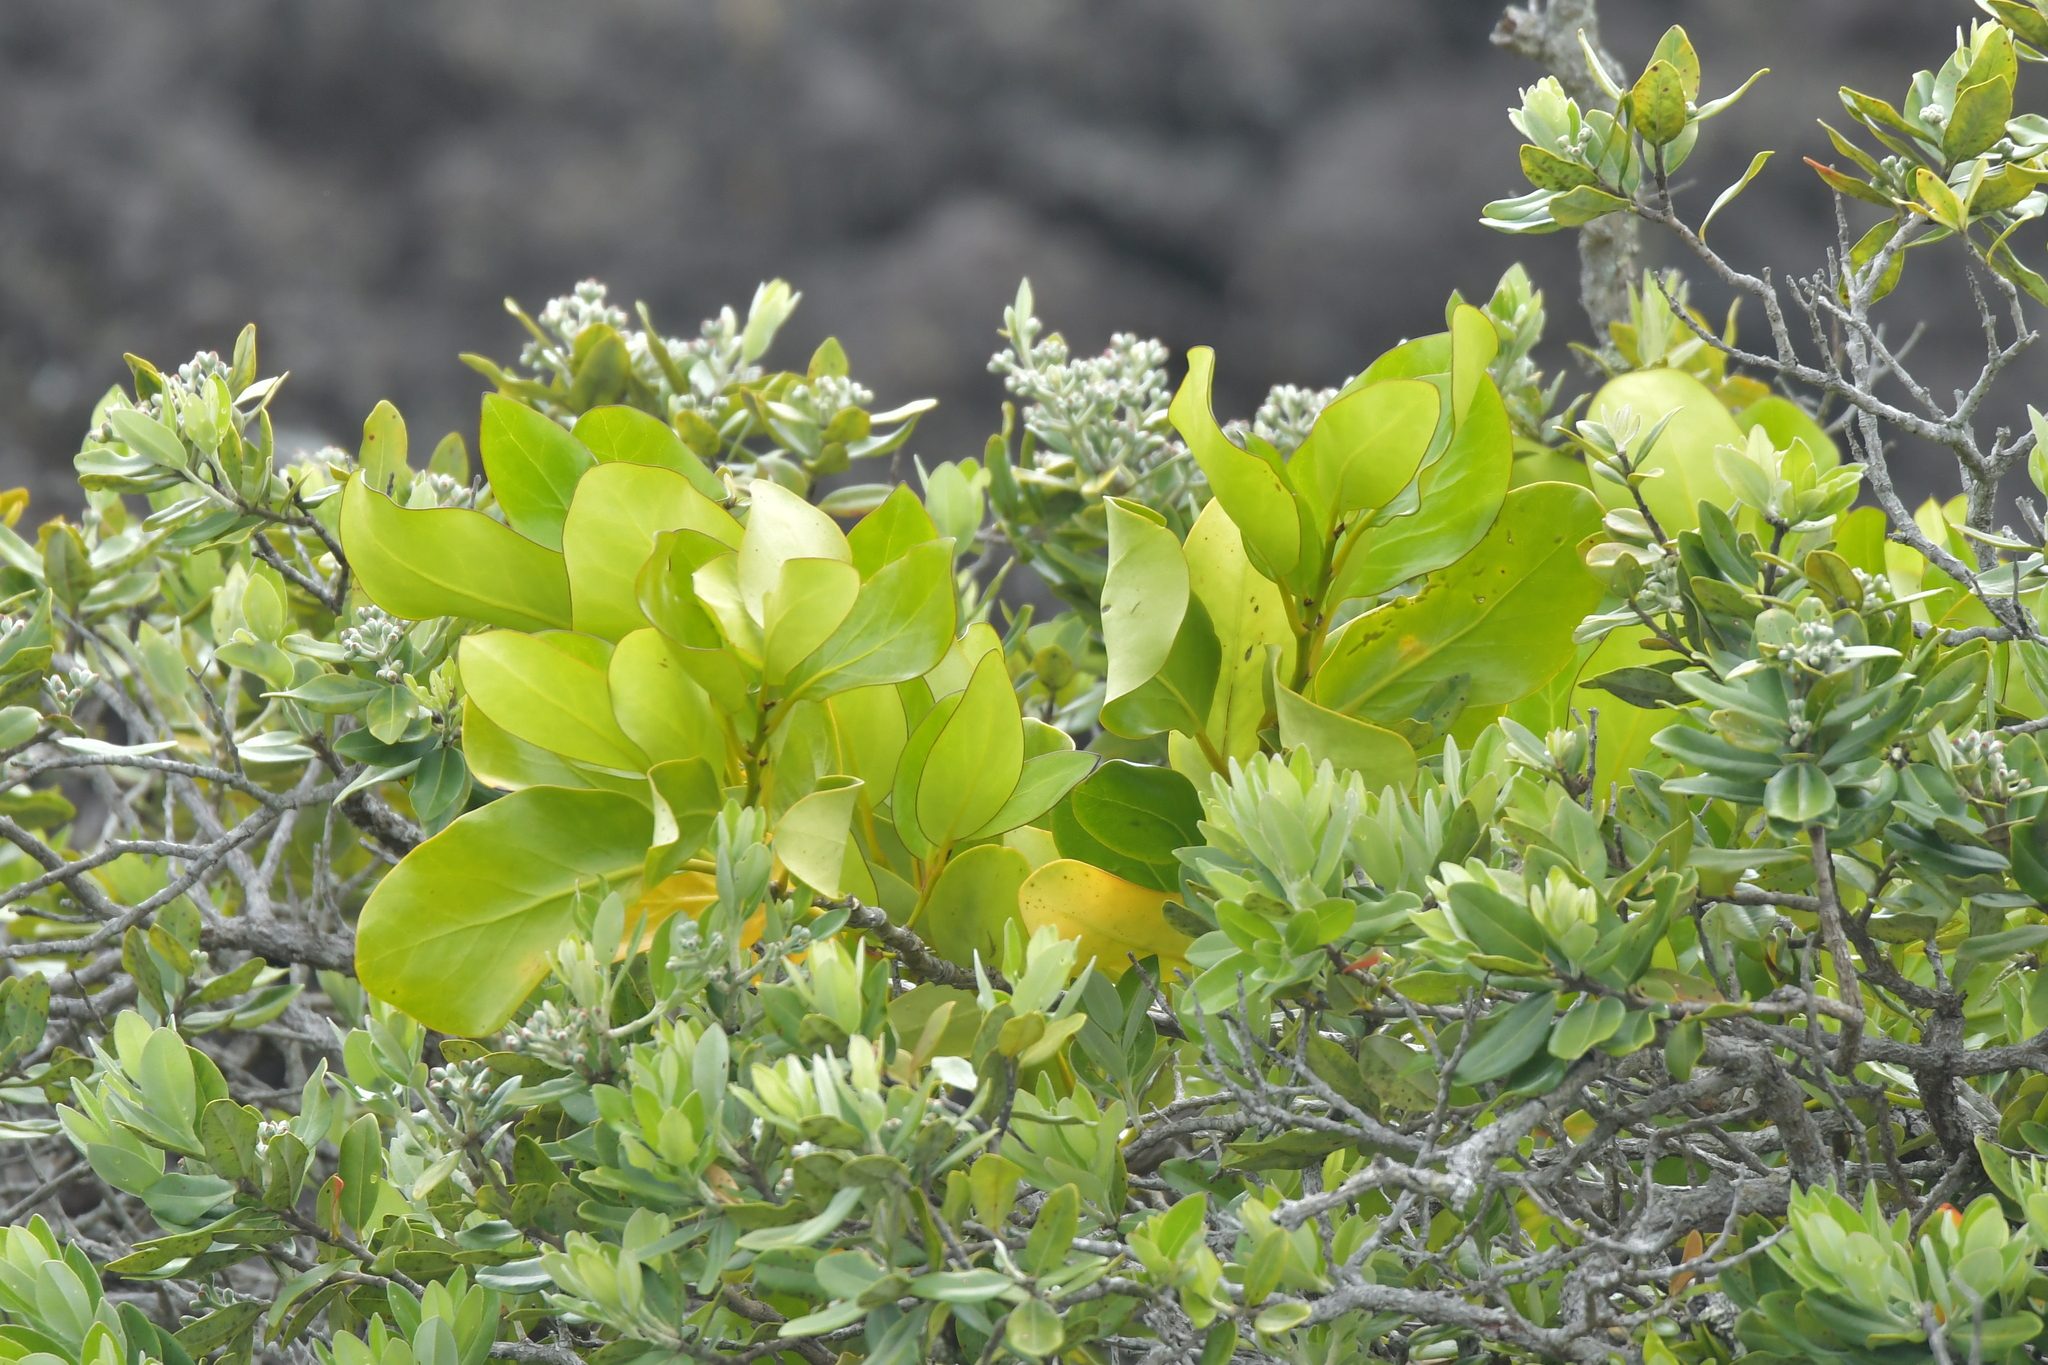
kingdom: Plantae
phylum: Tracheophyta
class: Magnoliopsida
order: Apiales
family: Griseliniaceae
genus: Griselinia
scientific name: Griselinia lucida
